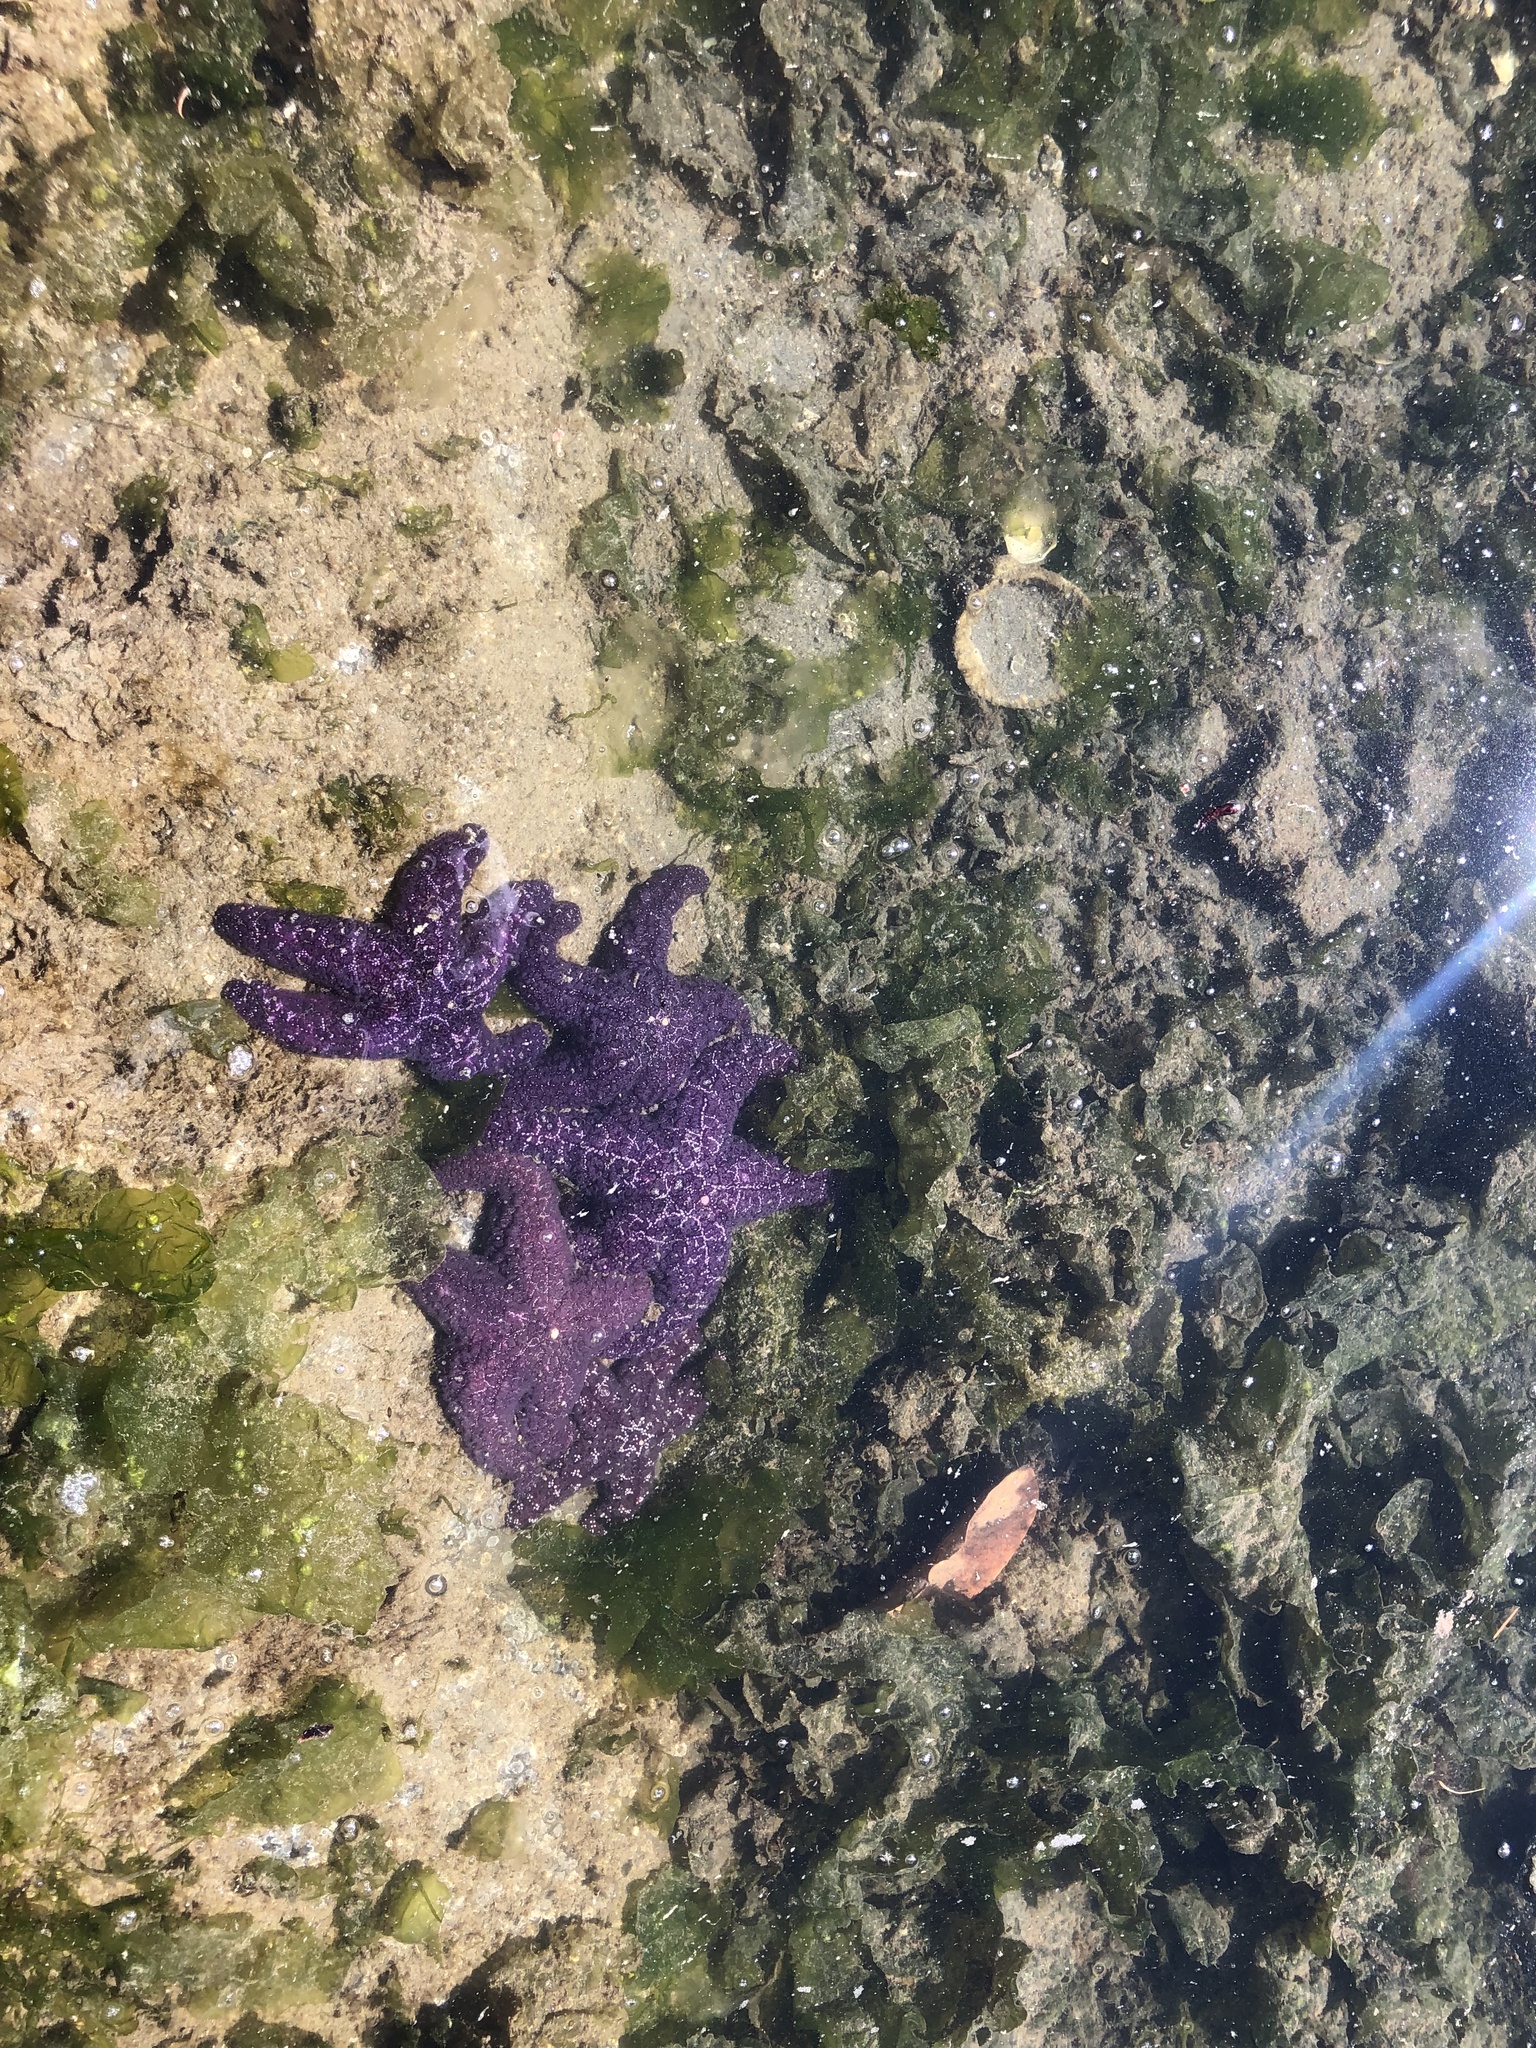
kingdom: Animalia
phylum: Echinodermata
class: Asteroidea
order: Forcipulatida
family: Asteriidae
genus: Pisaster
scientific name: Pisaster ochraceus
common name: Ochre stars
